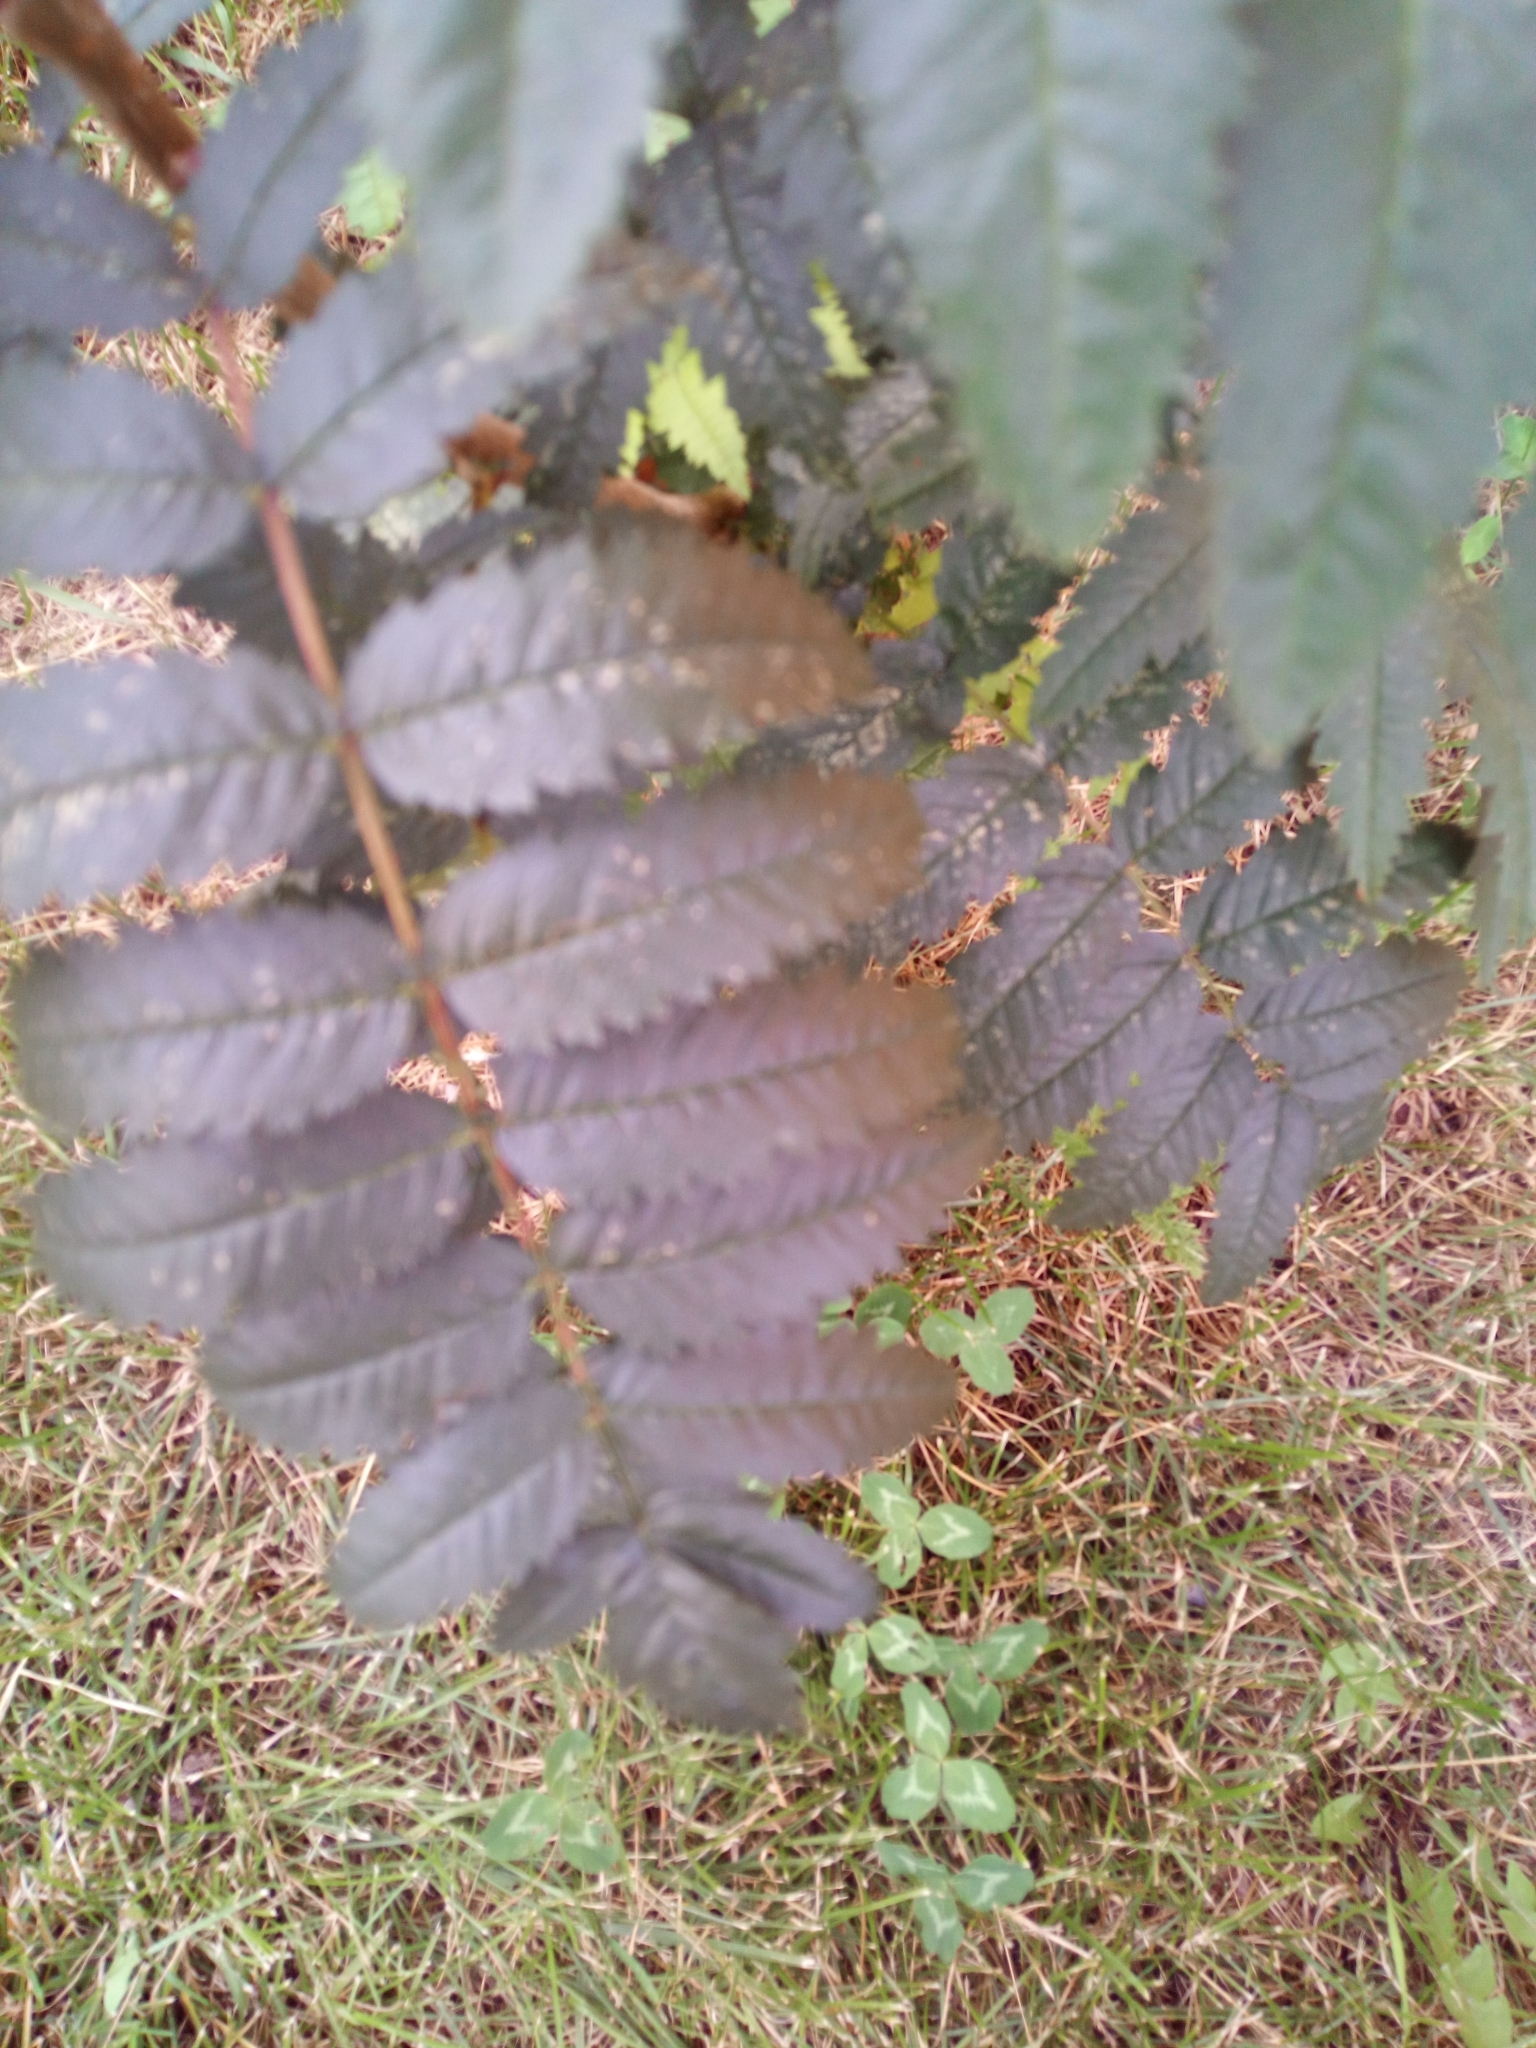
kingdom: Plantae
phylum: Tracheophyta
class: Magnoliopsida
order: Rosales
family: Rosaceae
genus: Sorbus
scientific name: Sorbus aucuparia
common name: Rowan
